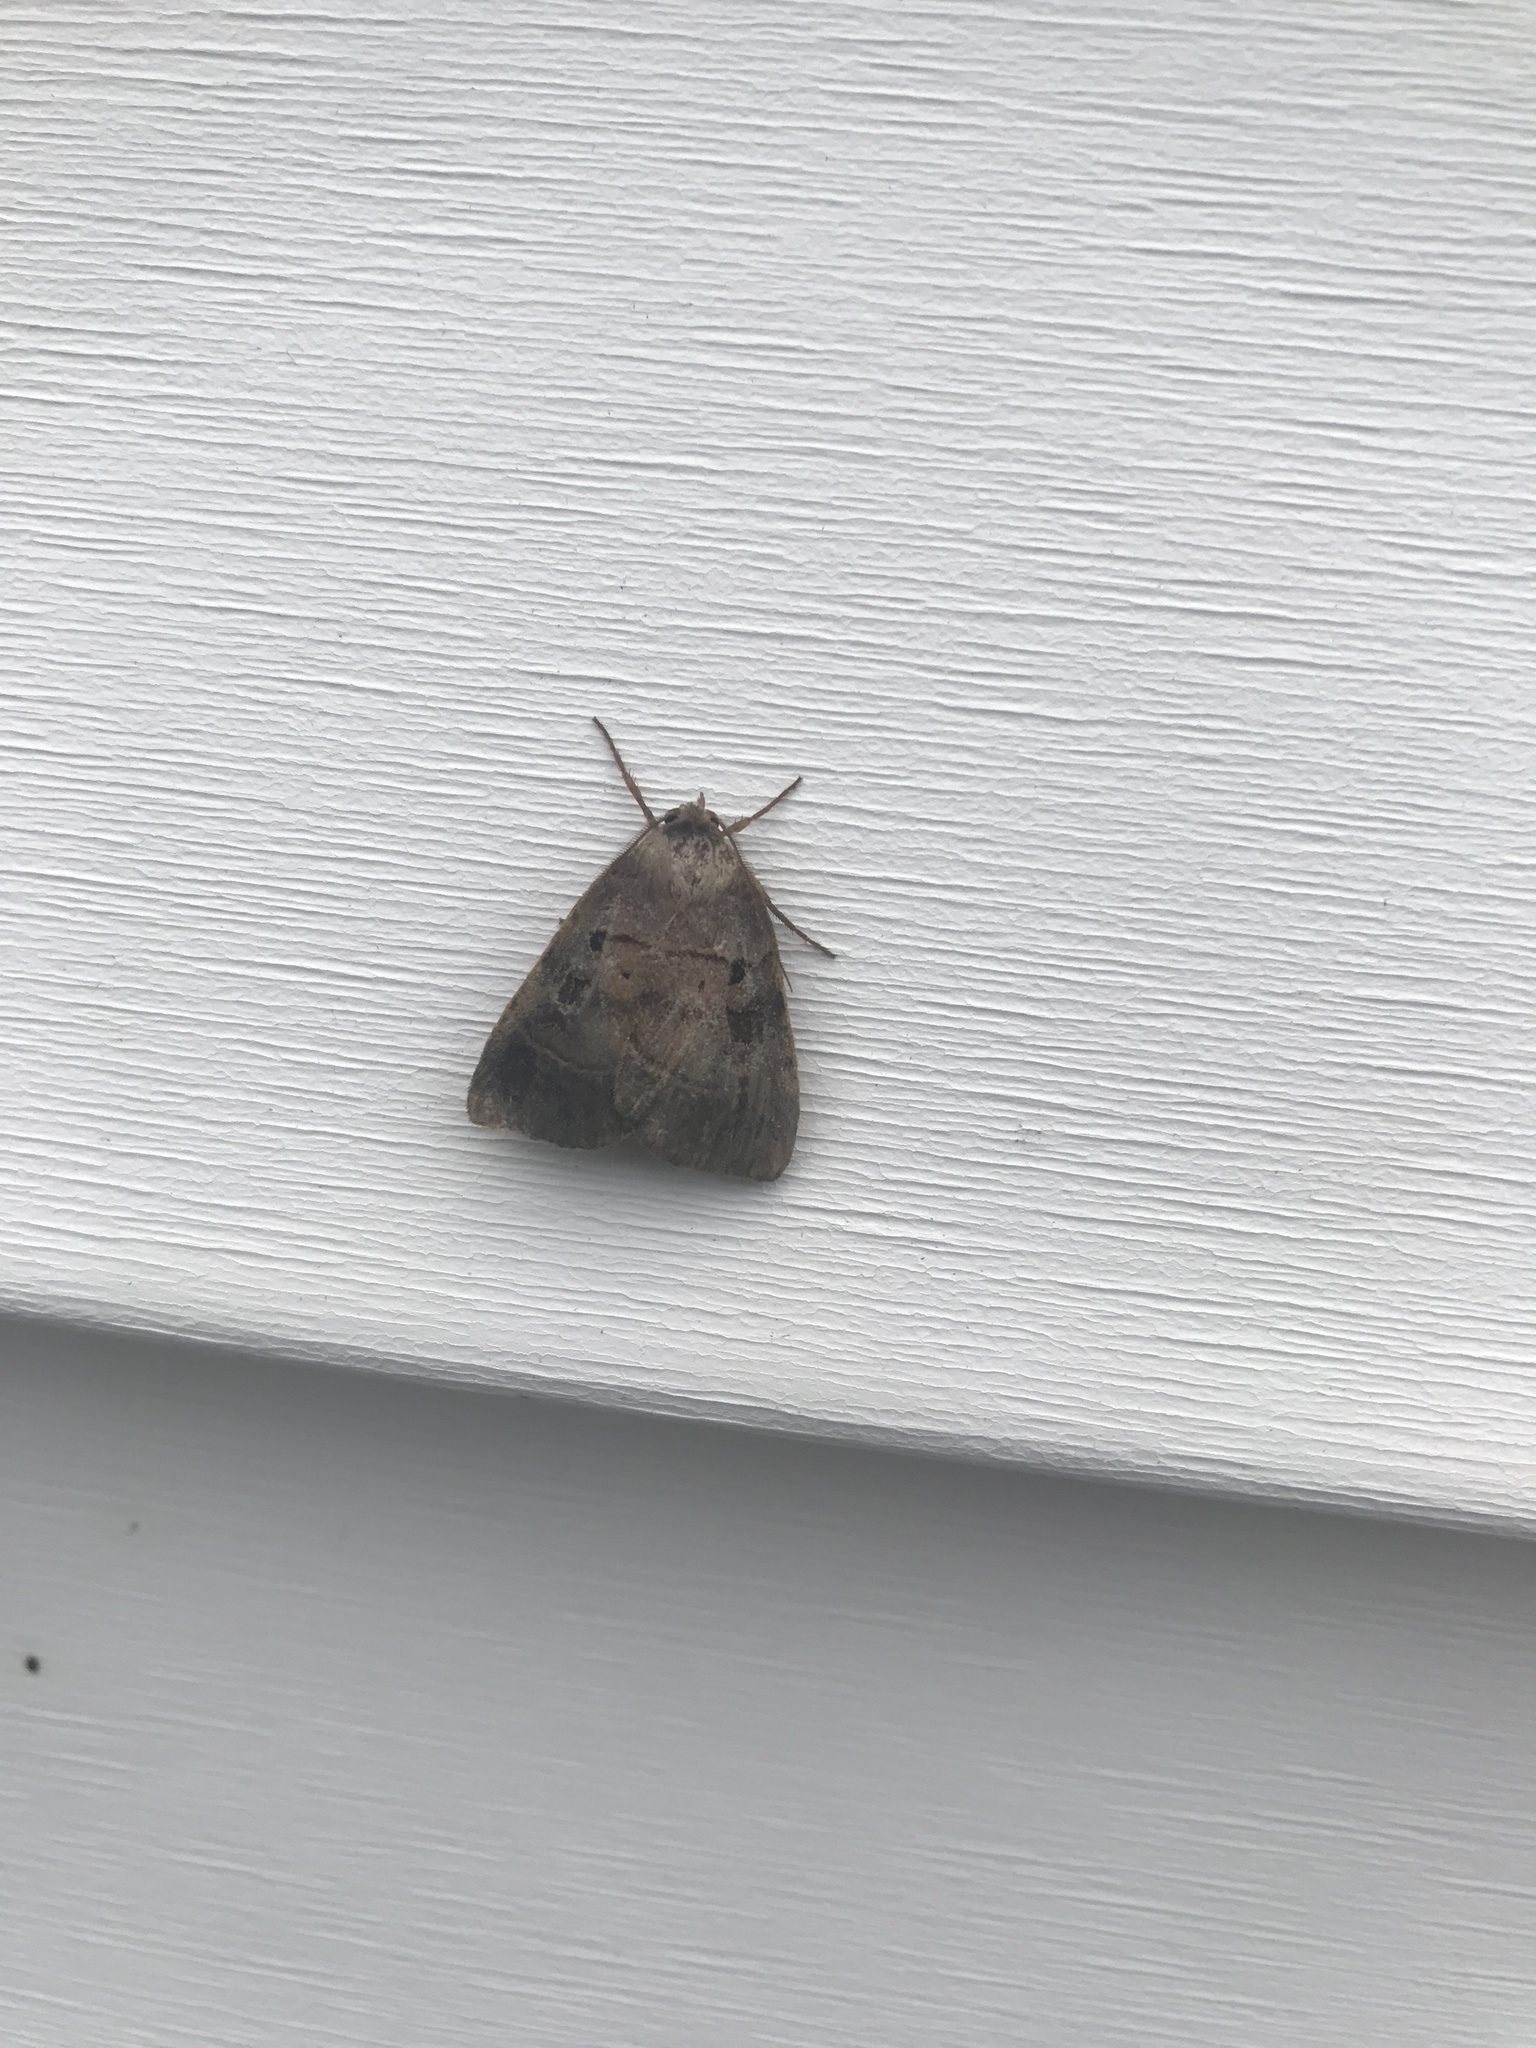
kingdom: Animalia
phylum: Arthropoda
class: Insecta
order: Lepidoptera
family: Noctuidae
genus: Agnorisma
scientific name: Agnorisma badinodis
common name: Pale-banded dart
